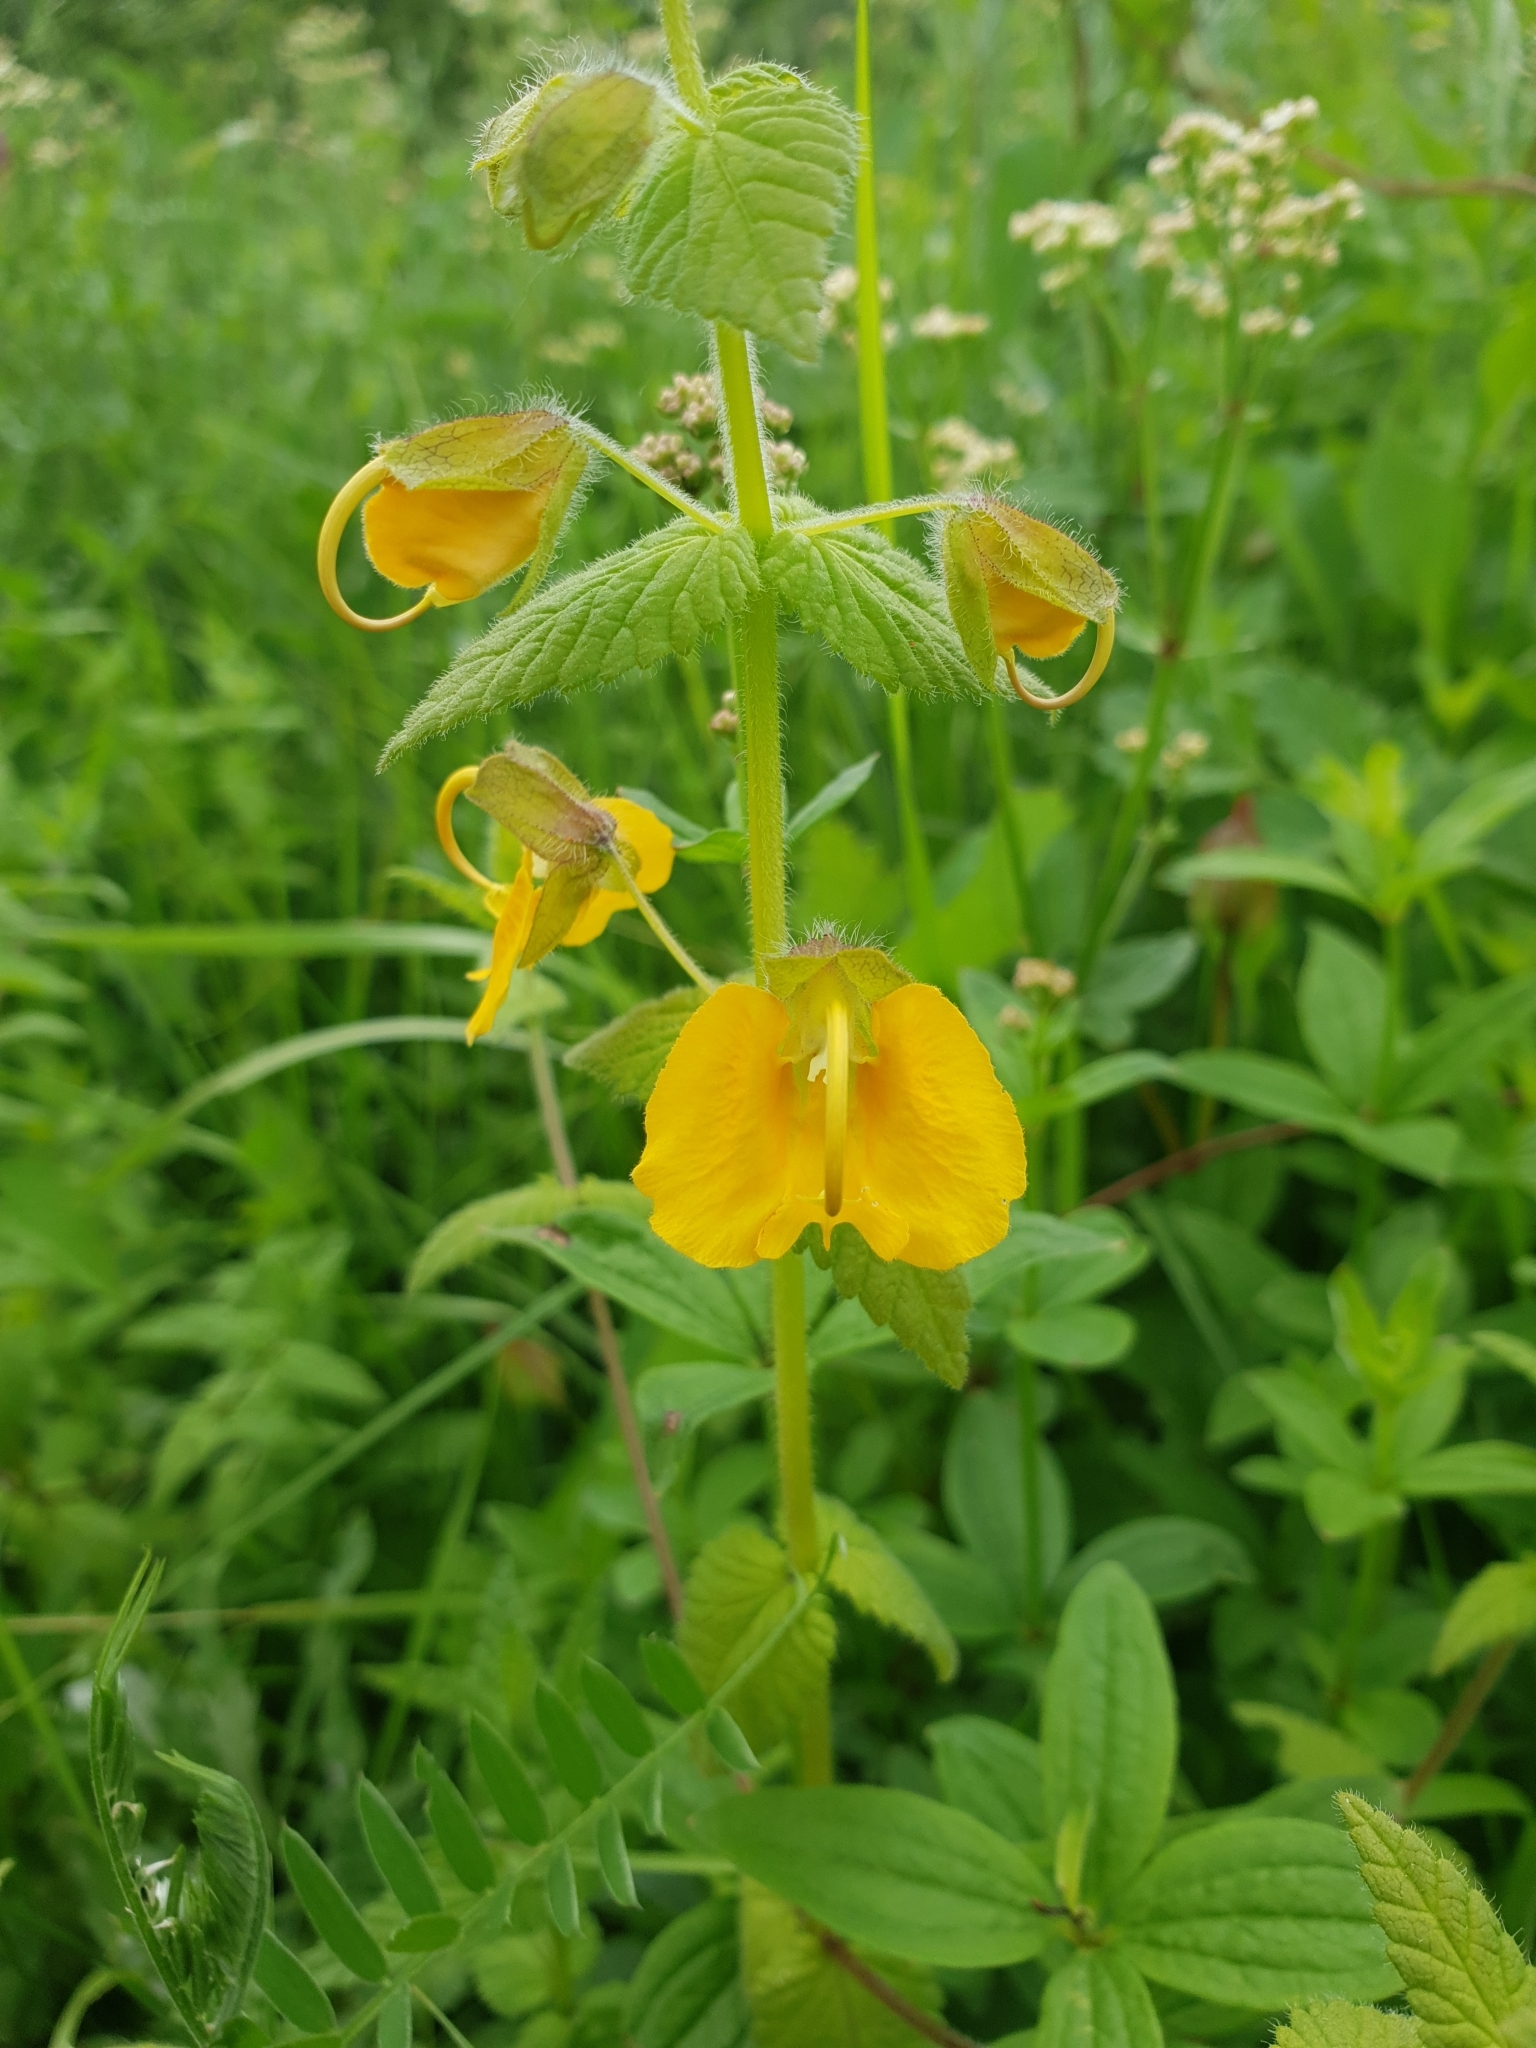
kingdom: Plantae
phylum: Tracheophyta
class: Magnoliopsida
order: Lamiales
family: Orobanchaceae
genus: Rhynchocorys
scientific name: Rhynchocorys orientalis
